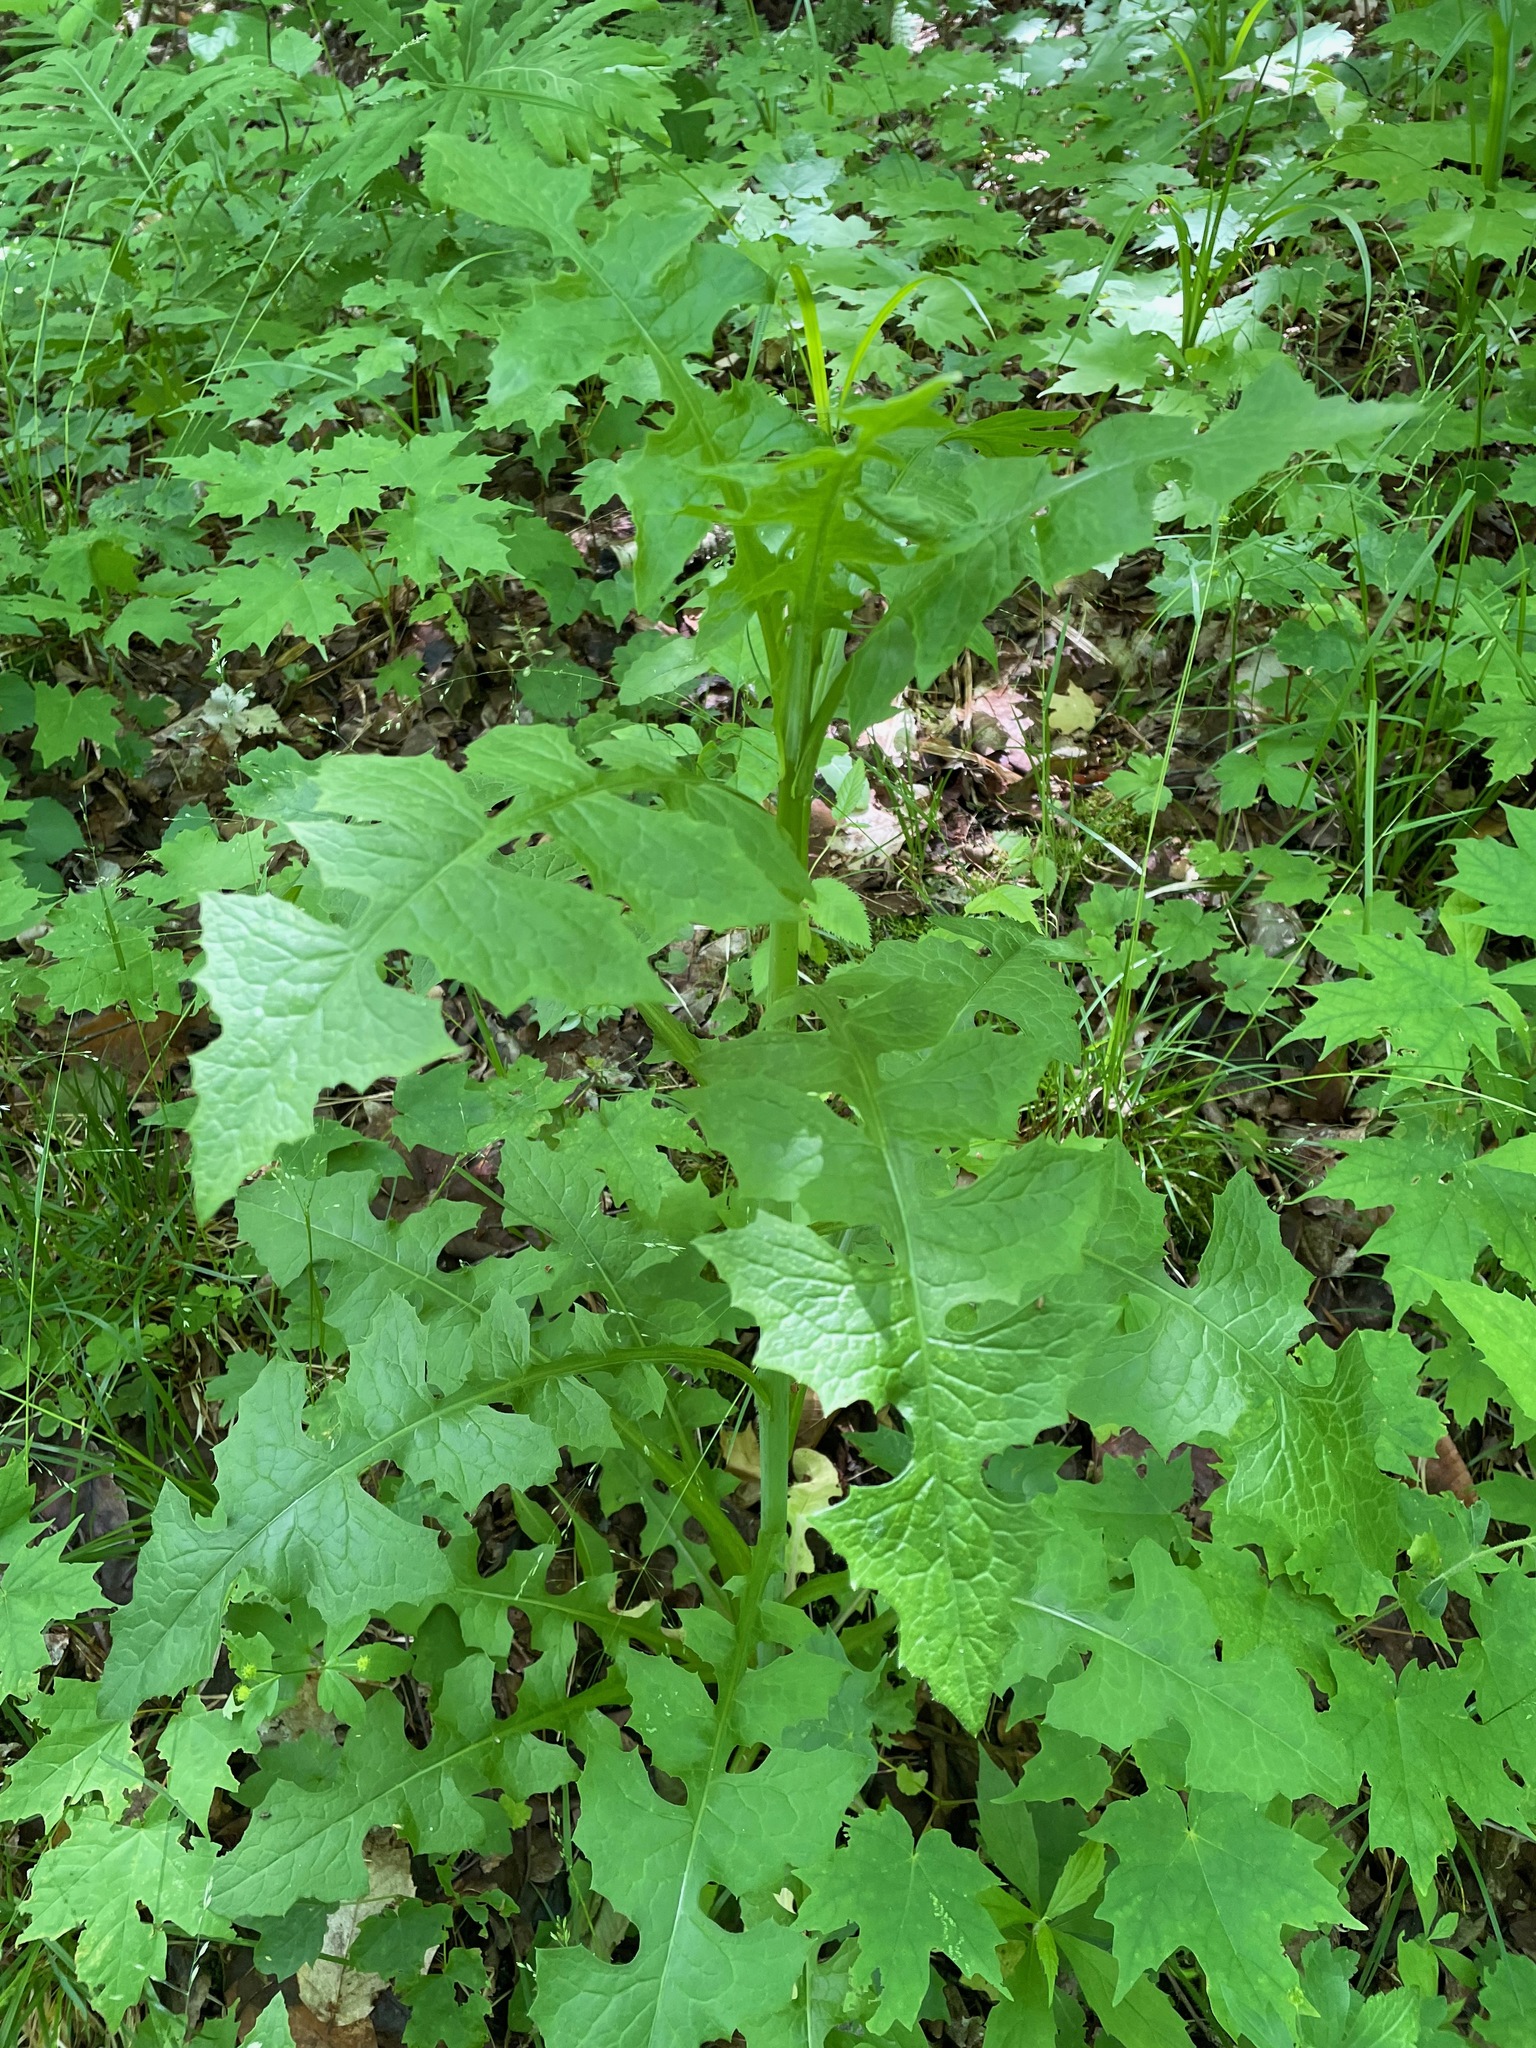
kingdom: Plantae
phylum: Tracheophyta
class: Magnoliopsida
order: Asterales
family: Asteraceae
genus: Lactuca
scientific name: Lactuca biennis
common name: Blue wood lettuce
